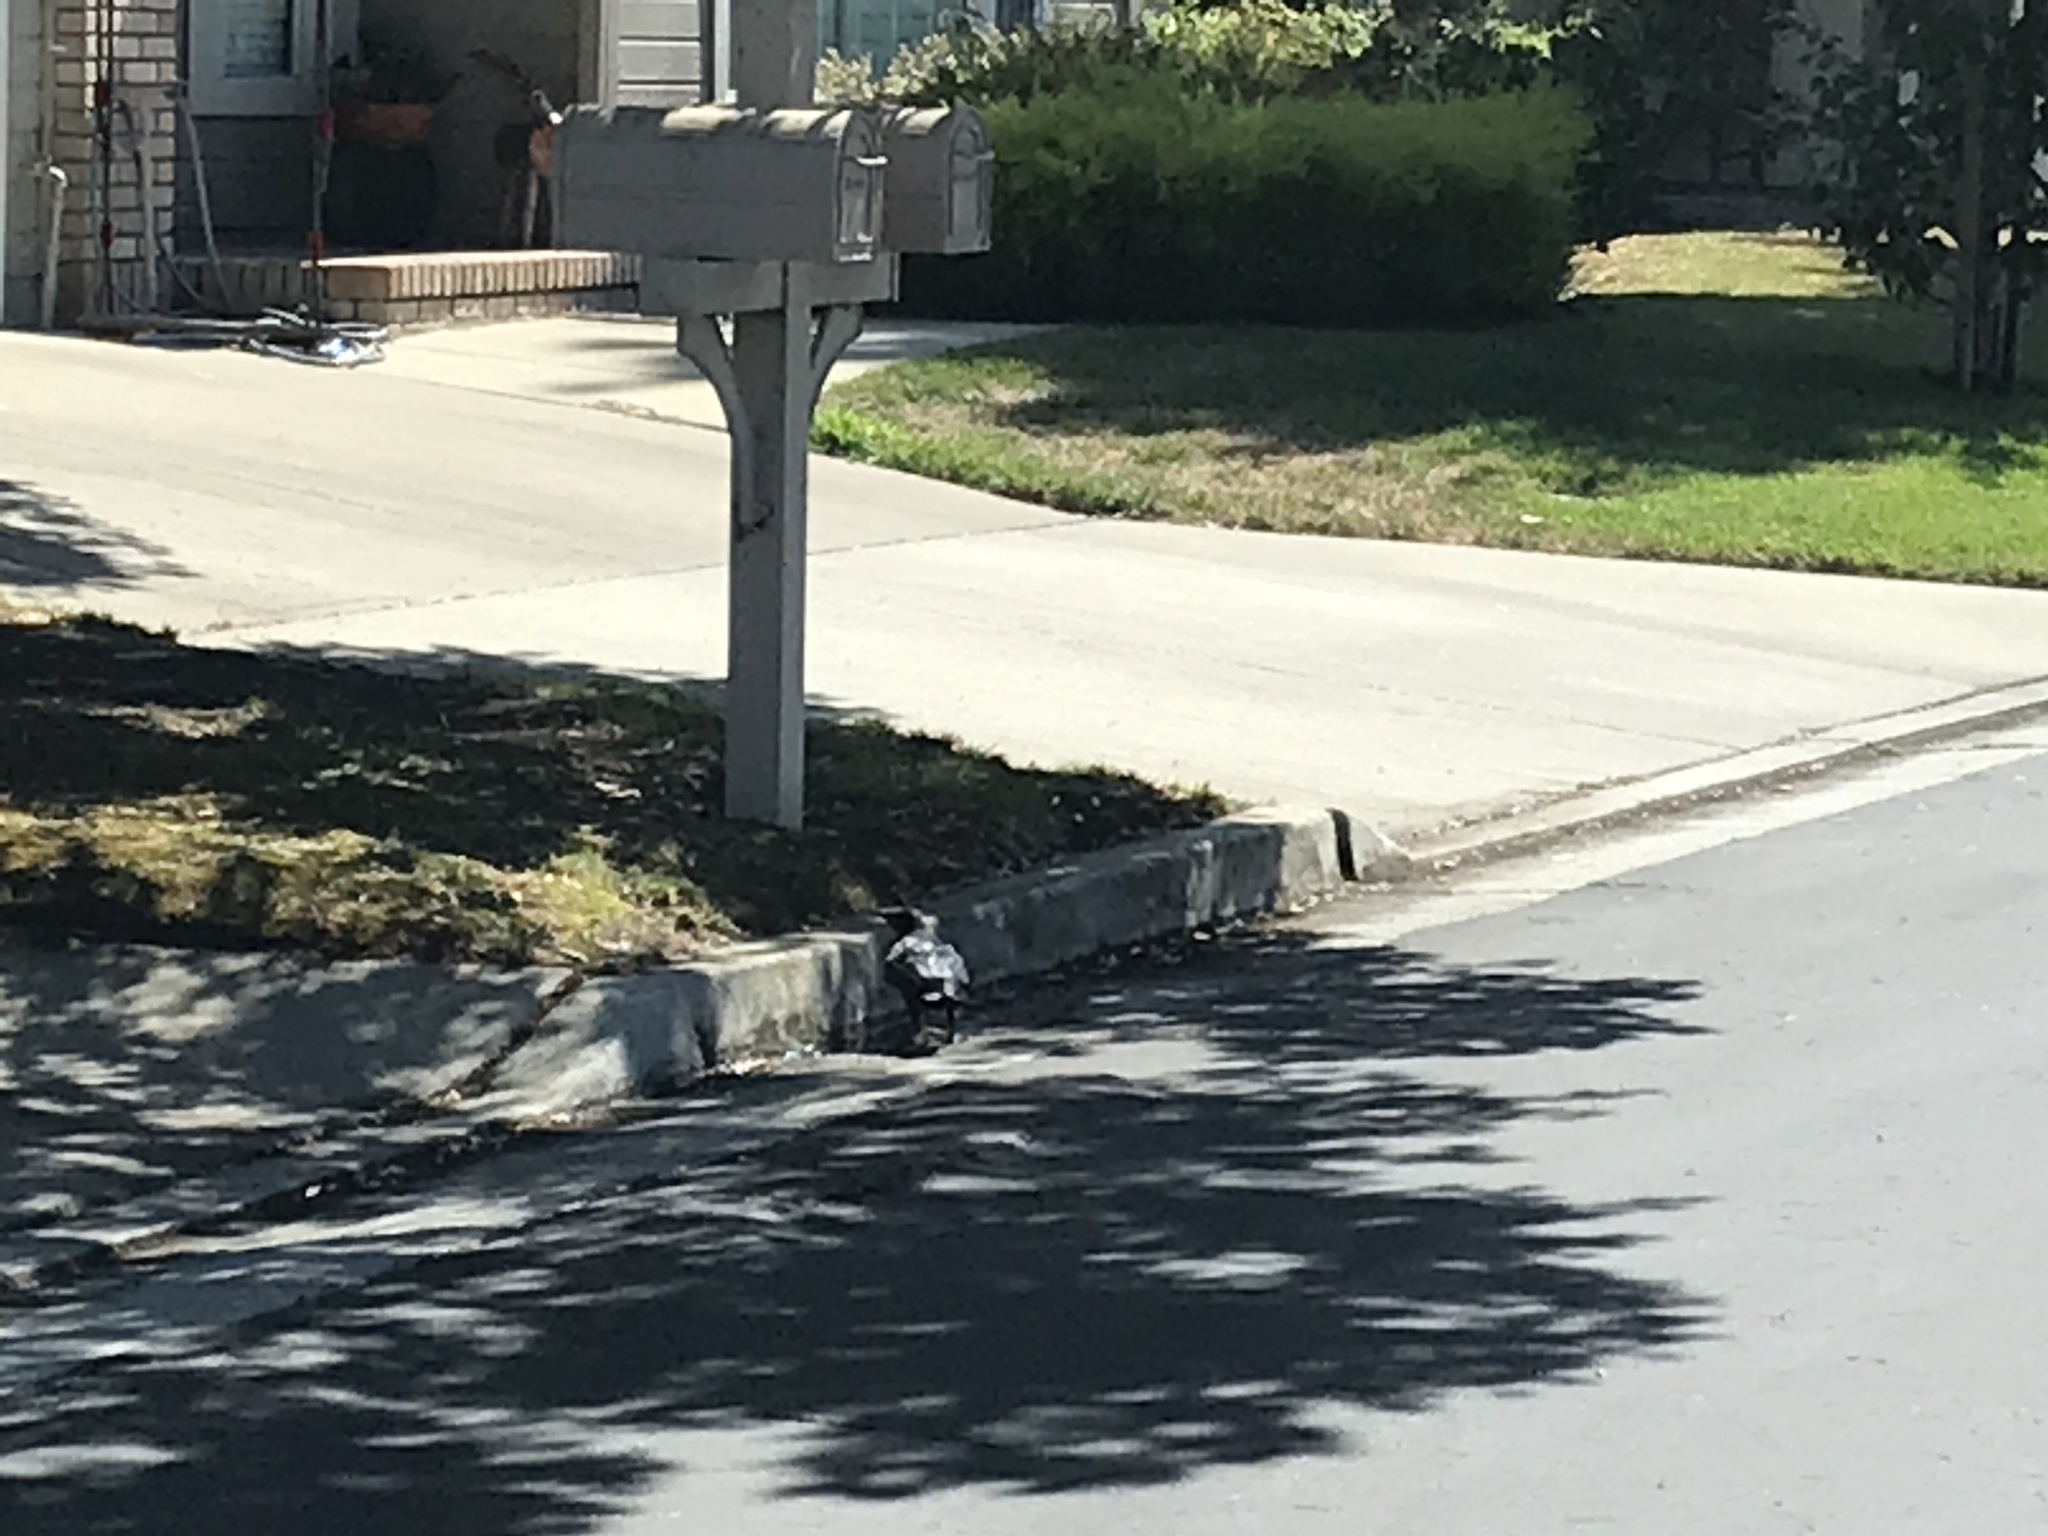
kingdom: Animalia
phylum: Chordata
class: Aves
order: Passeriformes
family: Corvidae
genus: Corvus
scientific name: Corvus brachyrhynchos
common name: American crow
